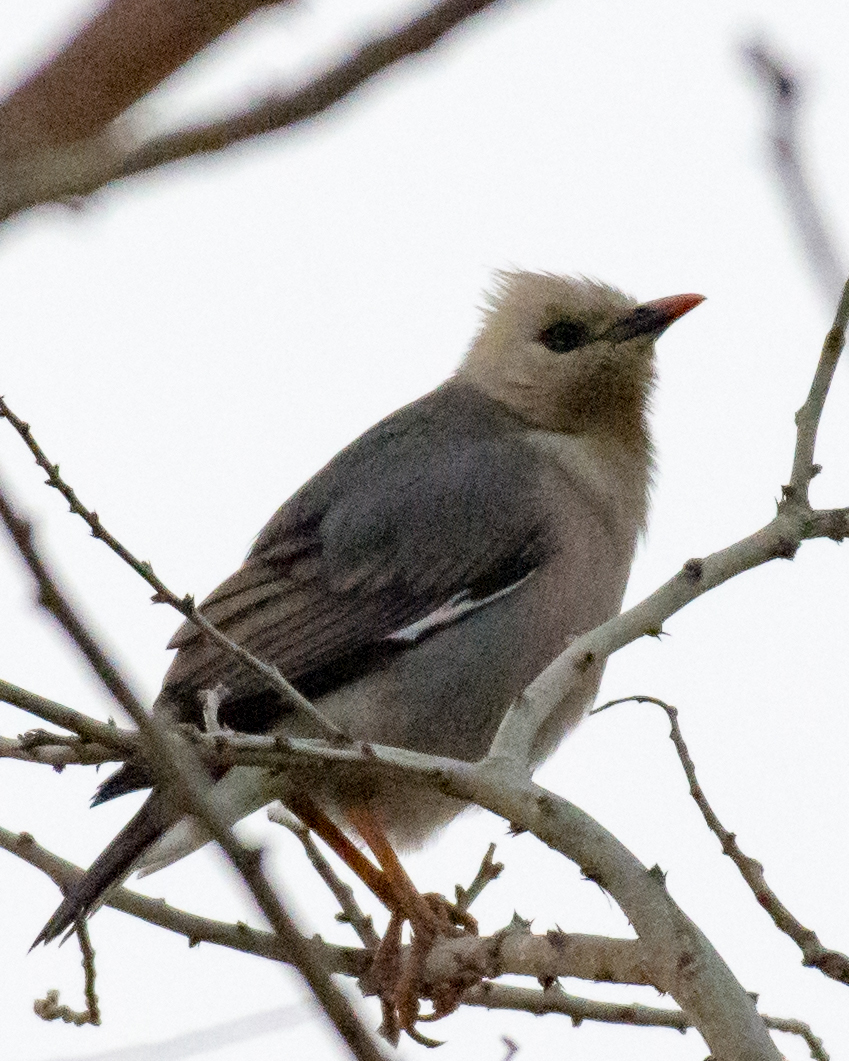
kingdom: Animalia
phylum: Chordata
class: Aves
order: Passeriformes
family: Sturnidae
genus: Acridotheres
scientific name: Acridotheres burmannicus
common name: Vinous-breasted starling
